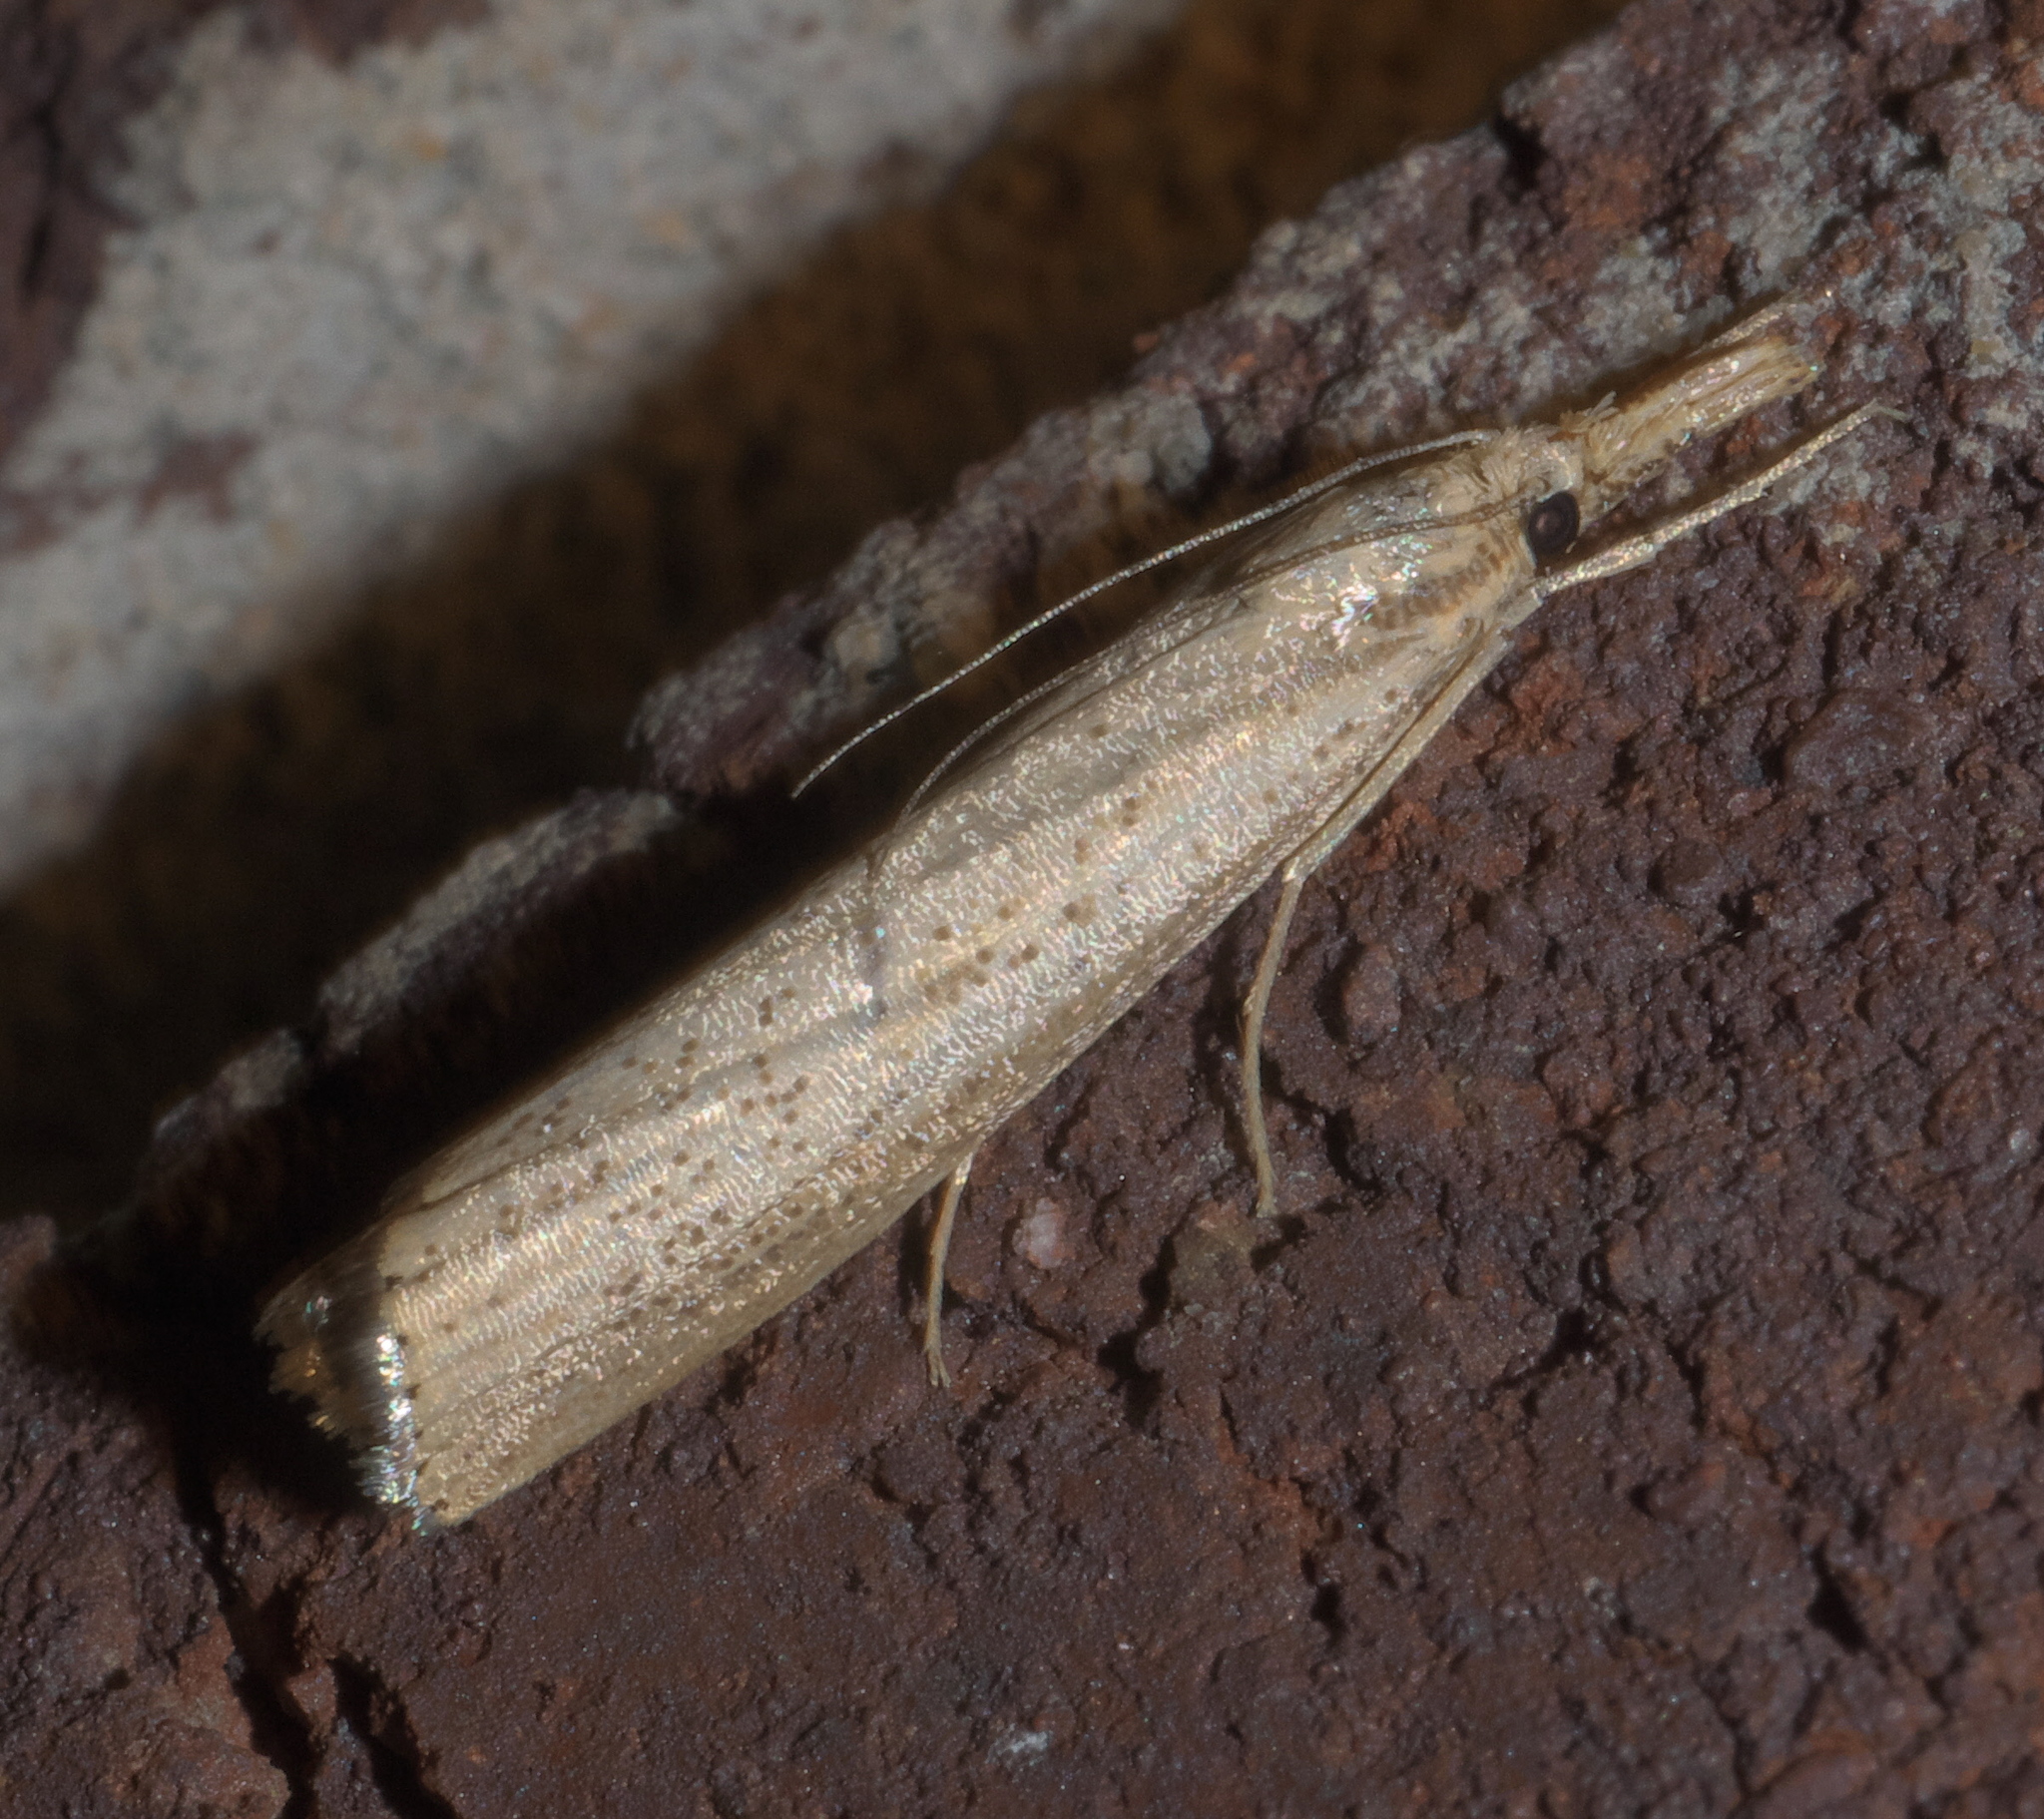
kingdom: Animalia
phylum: Arthropoda
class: Insecta
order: Lepidoptera
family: Crambidae
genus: Agriphila
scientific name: Agriphila vulgivagellus
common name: Vagabond crambus moth
